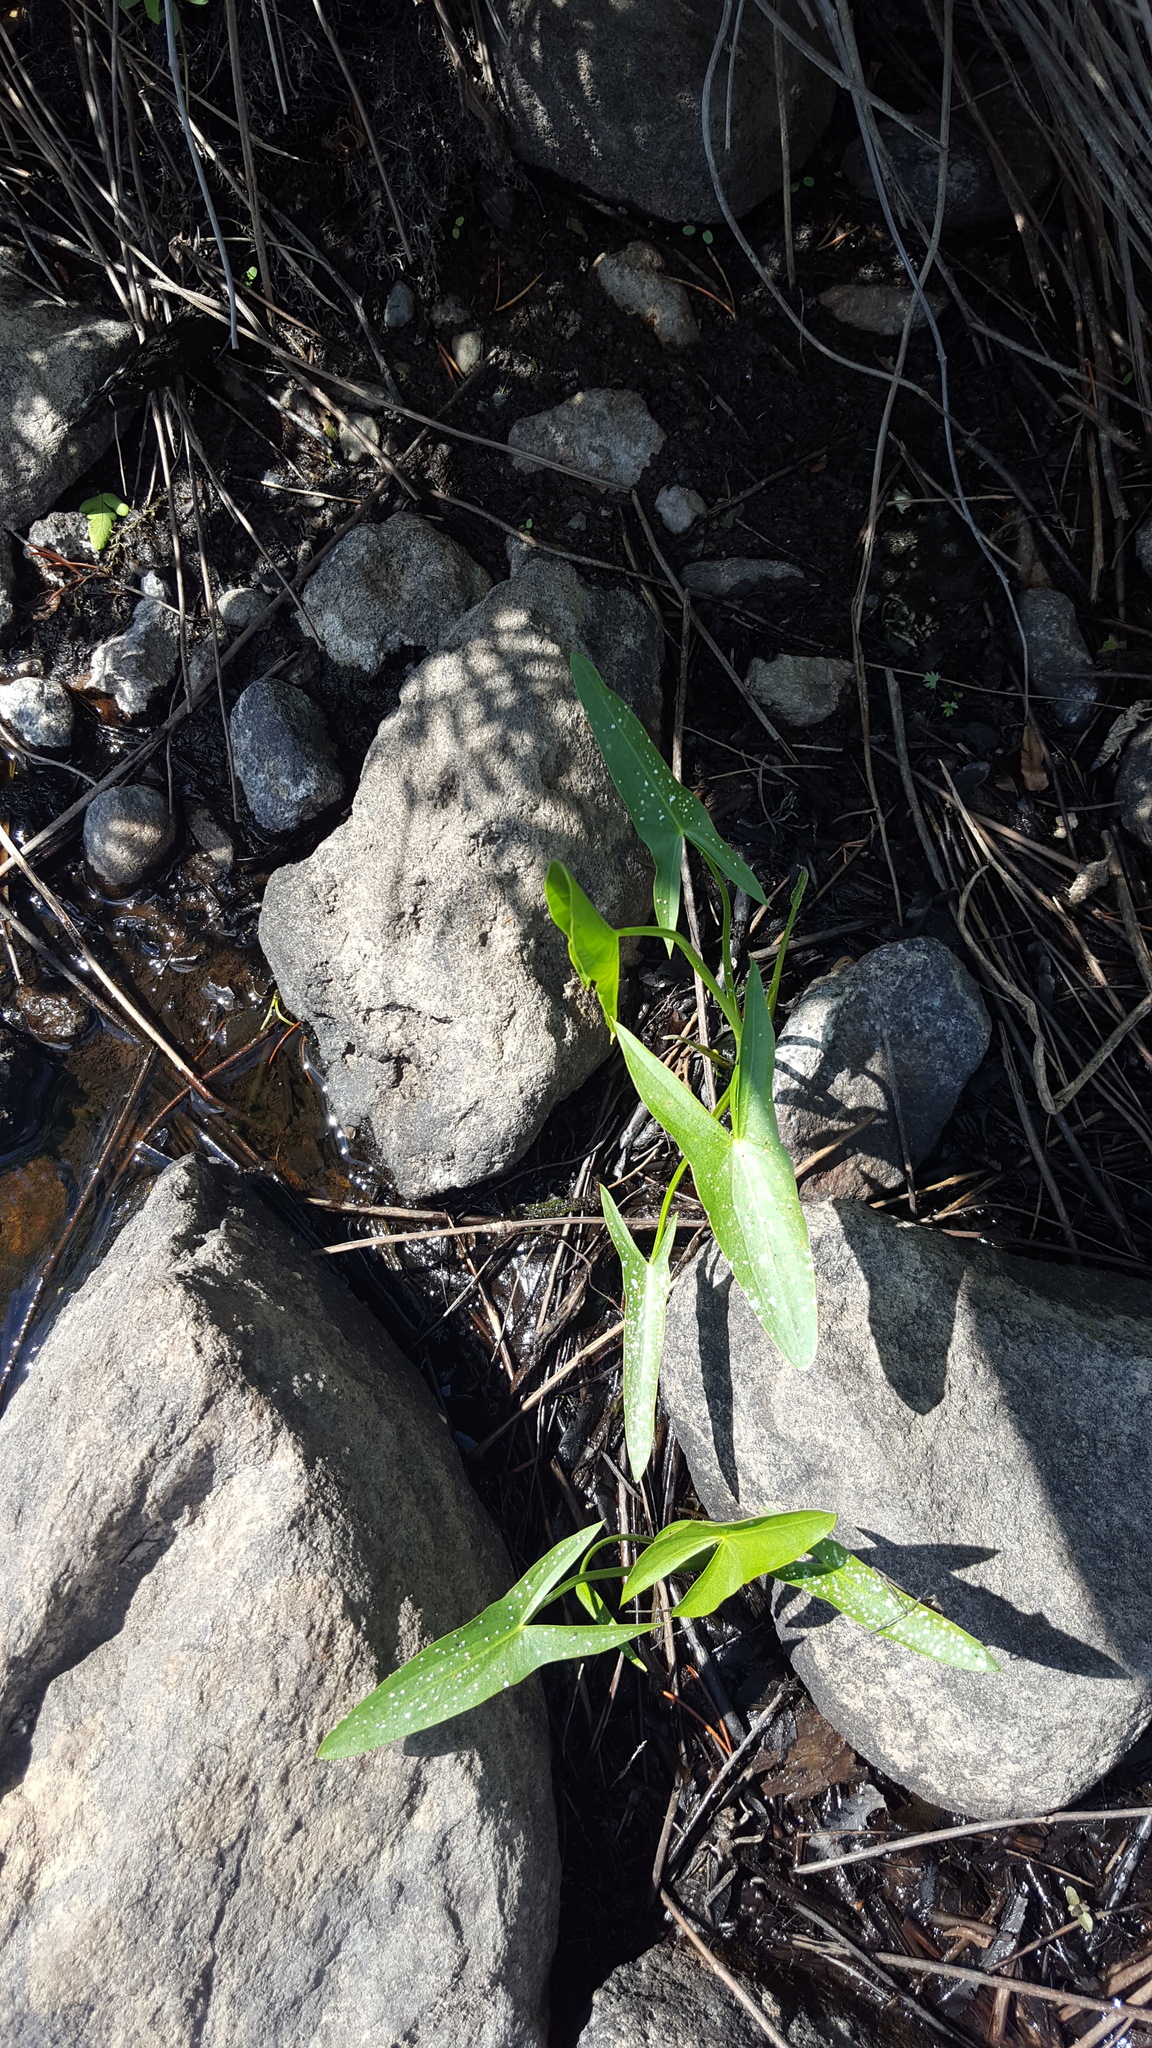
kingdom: Plantae
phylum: Tracheophyta
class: Liliopsida
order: Alismatales
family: Alismataceae
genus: Sagittaria
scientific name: Sagittaria latifolia
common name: Duck-potato
